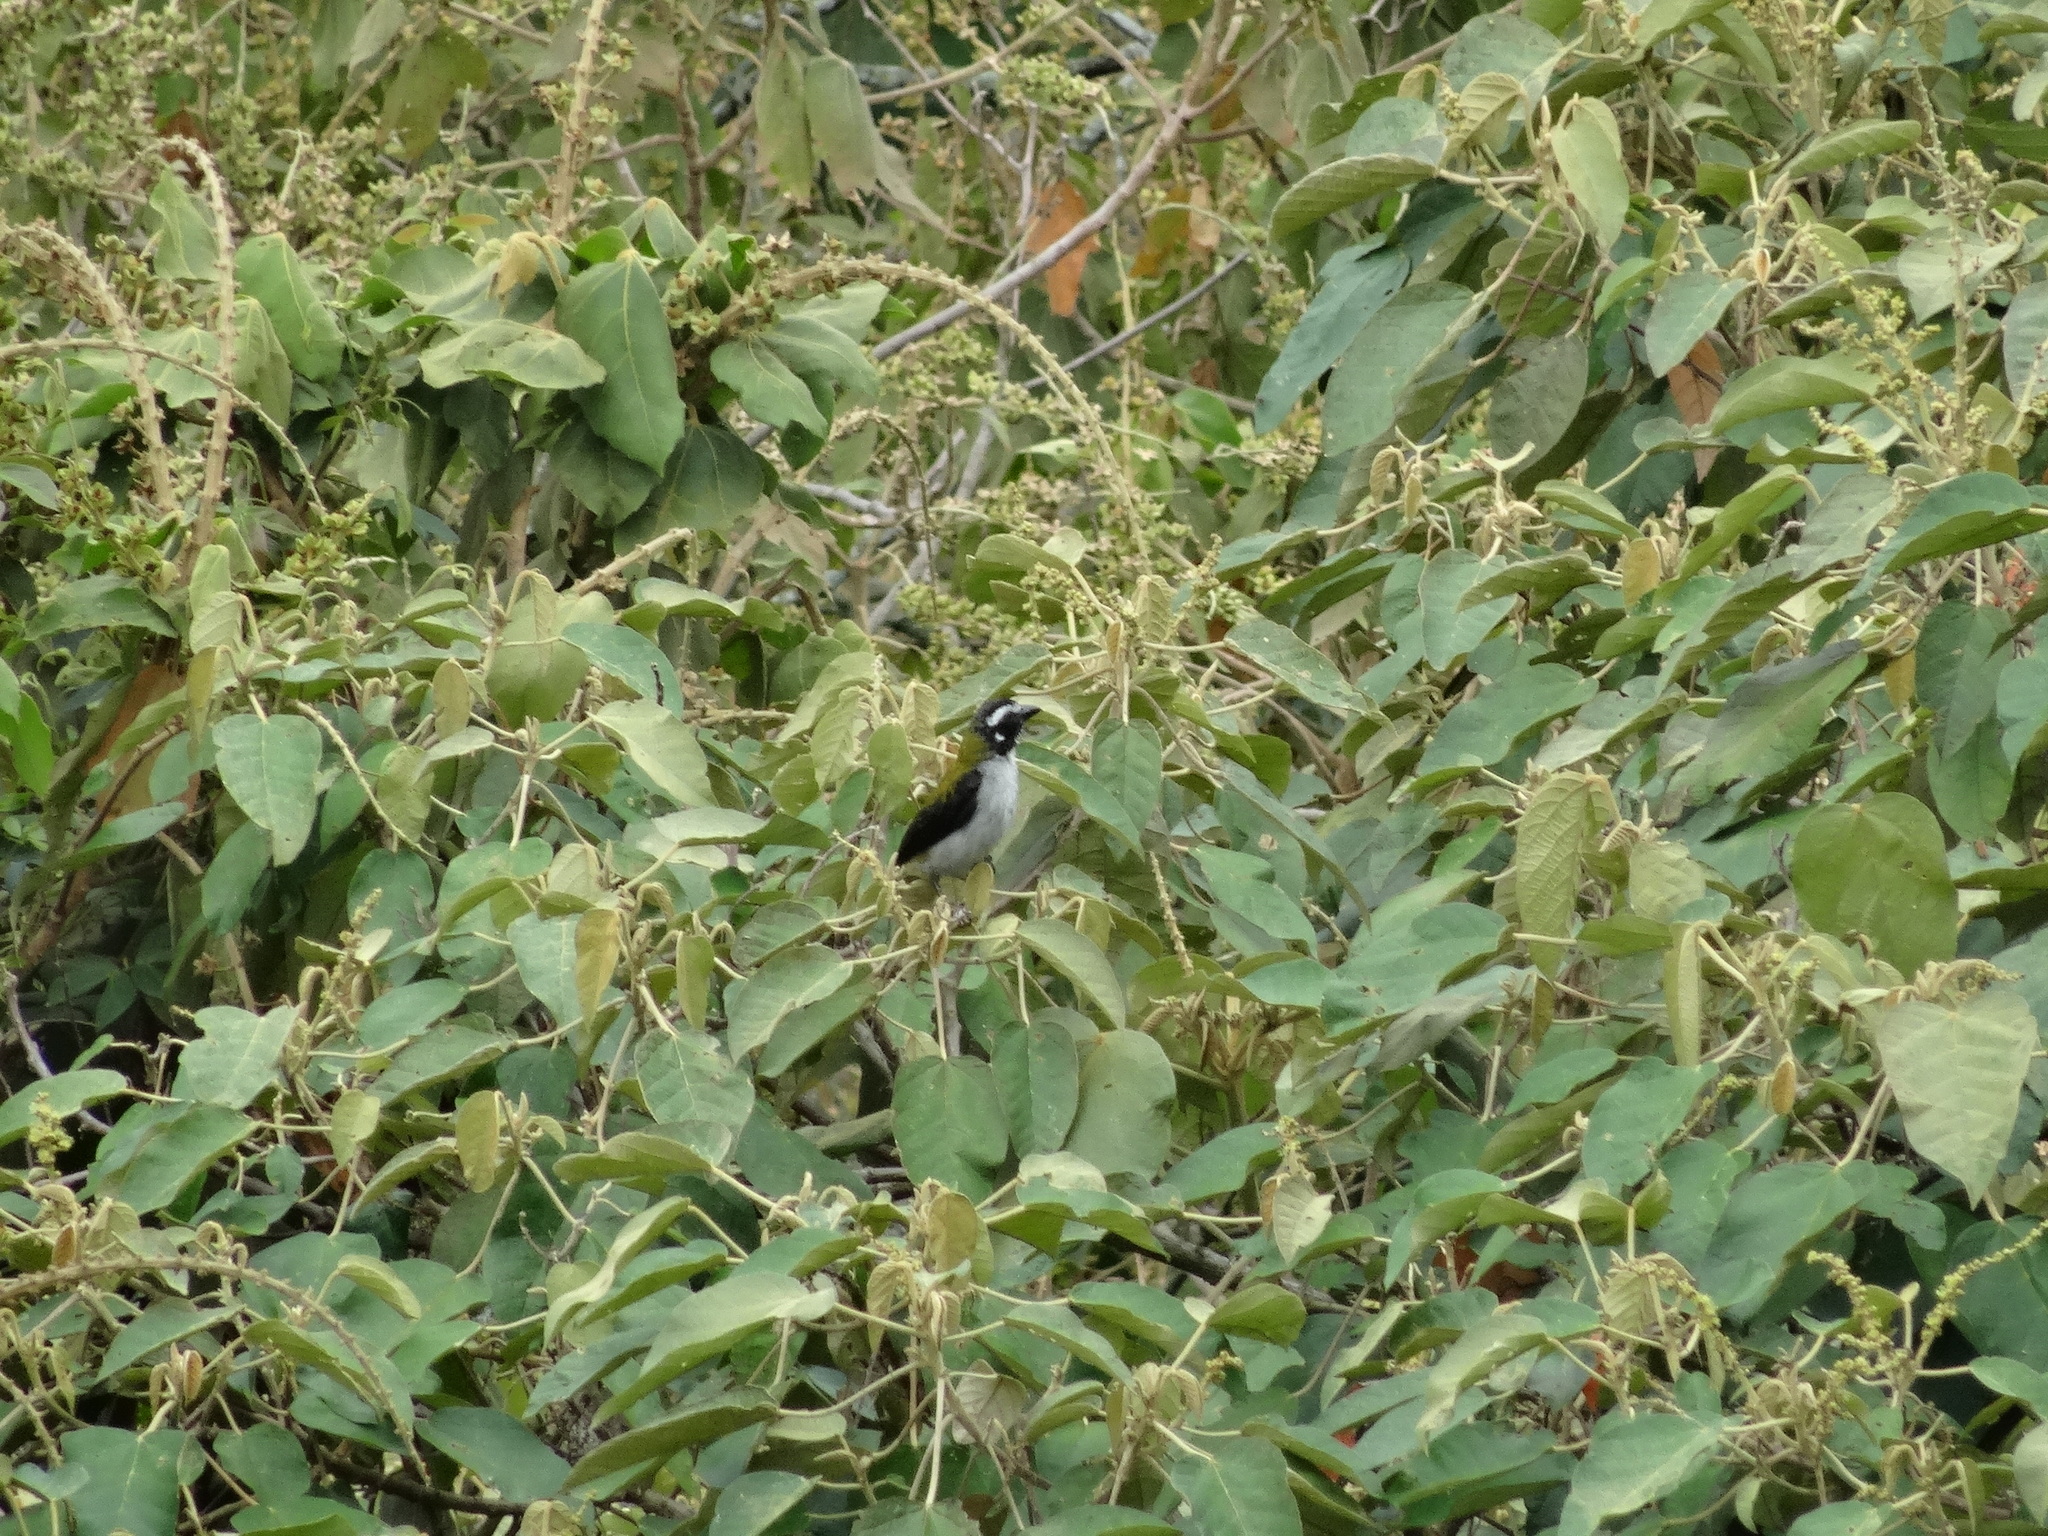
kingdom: Animalia
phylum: Chordata
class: Aves
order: Passeriformes
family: Thraupidae
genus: Saltator
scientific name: Saltator atripennis
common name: Black-winged saltator
